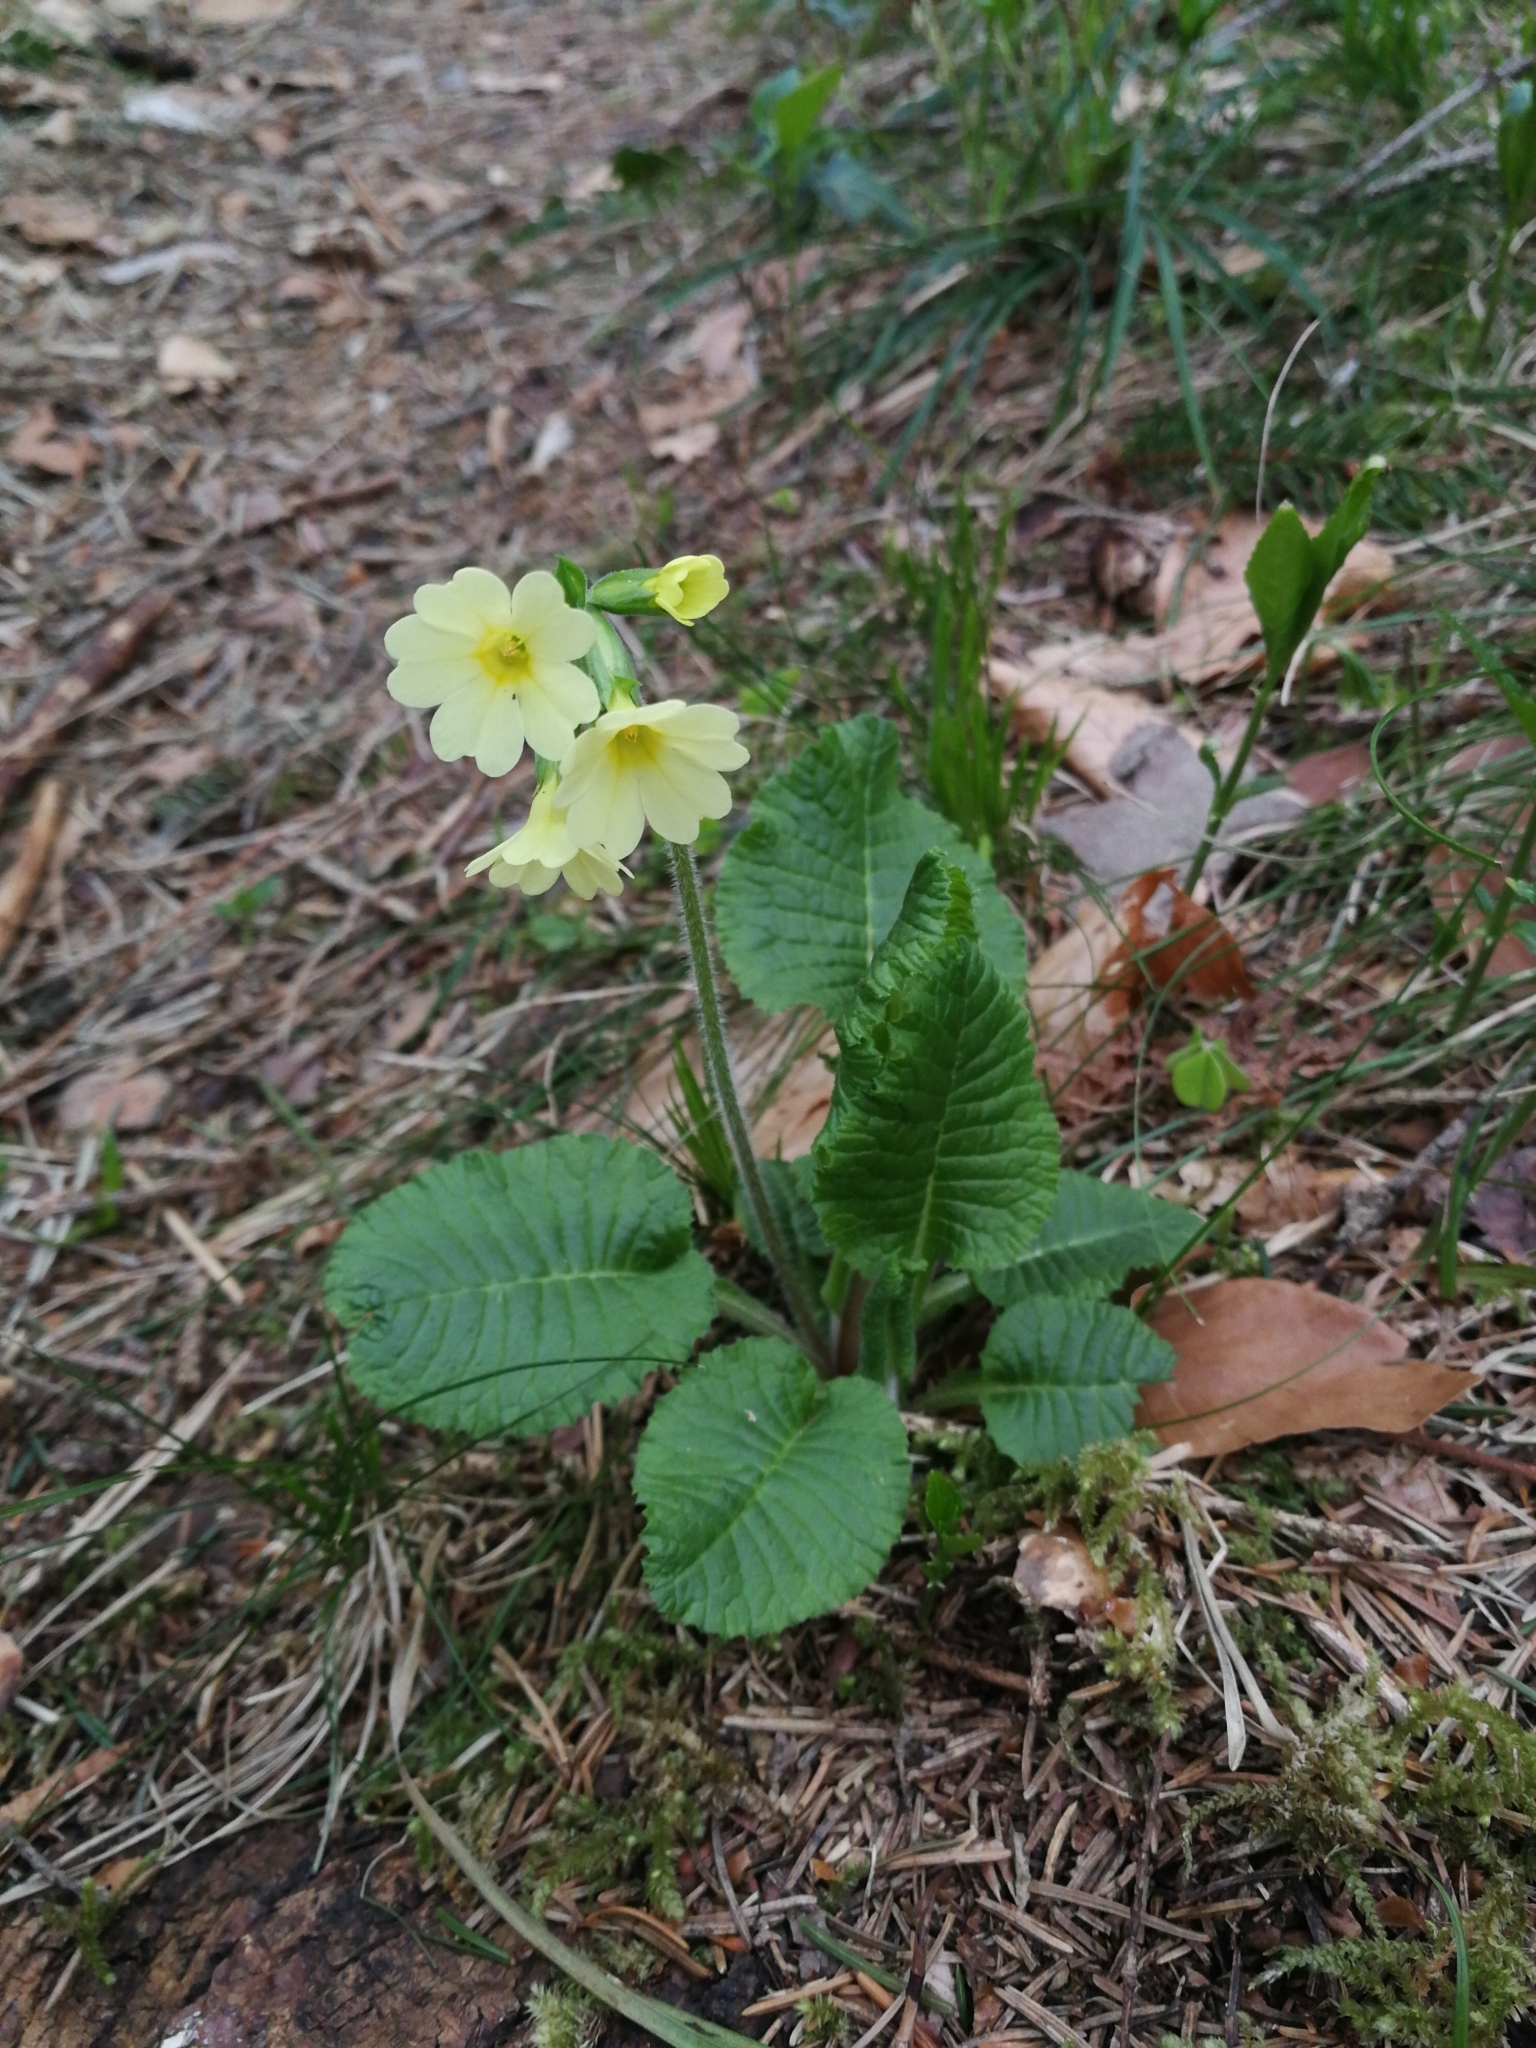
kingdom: Plantae
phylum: Tracheophyta
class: Magnoliopsida
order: Ericales
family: Primulaceae
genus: Primula
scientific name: Primula elatior
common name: Oxlip
